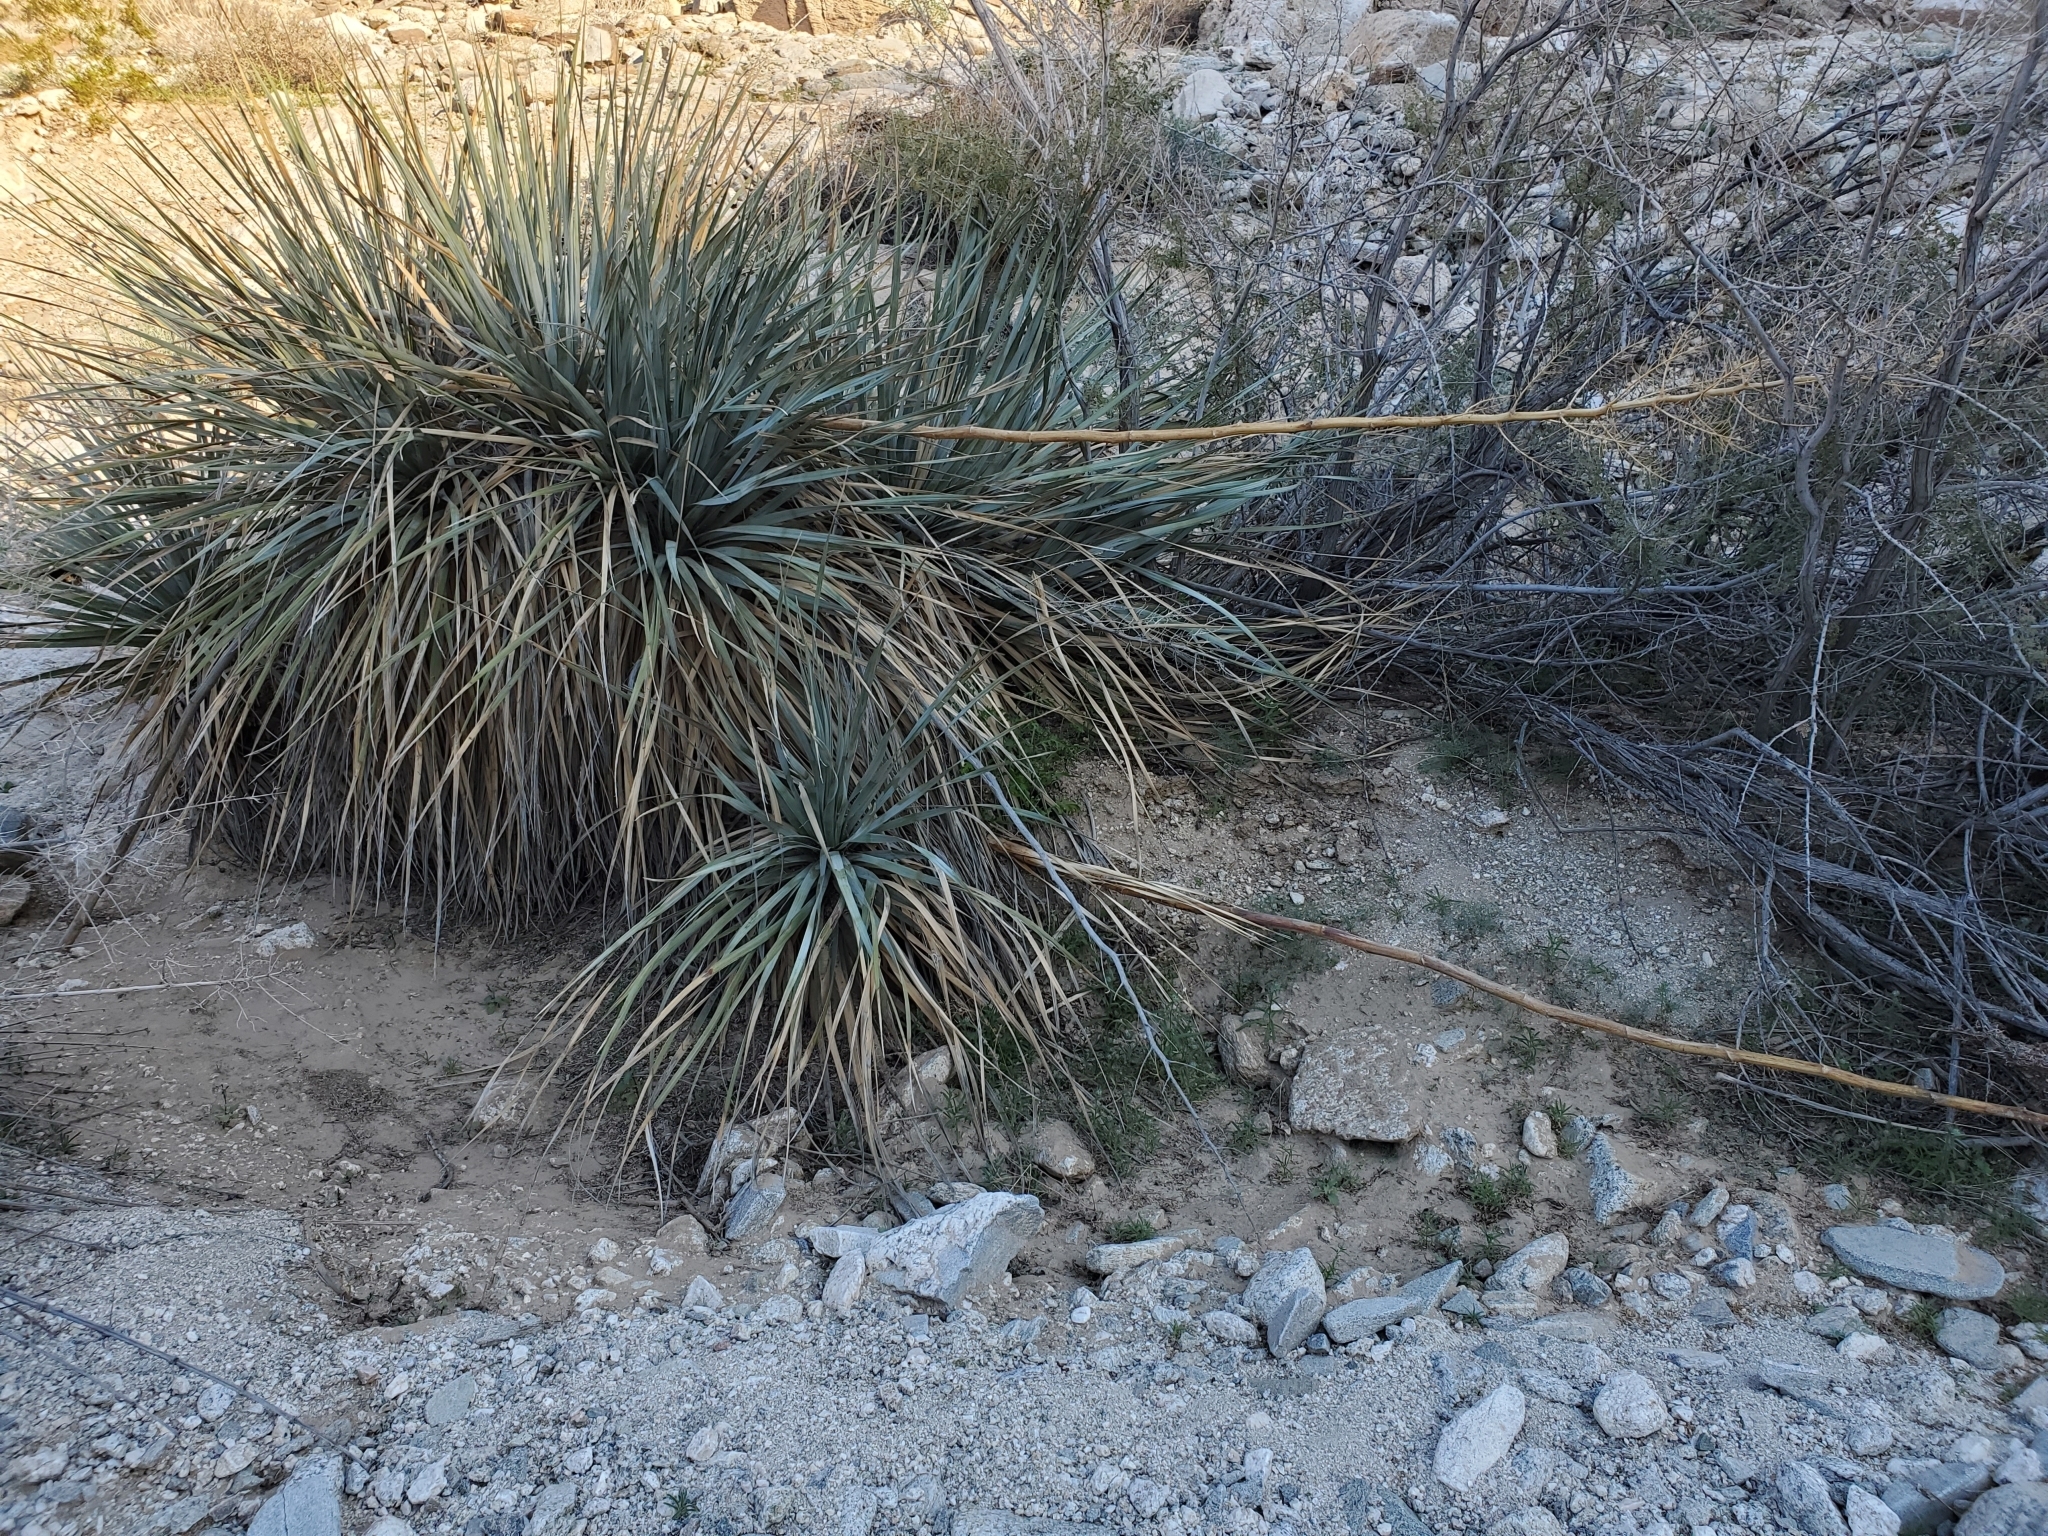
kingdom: Plantae
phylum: Tracheophyta
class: Liliopsida
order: Asparagales
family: Asparagaceae
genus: Nolina
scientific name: Nolina bigelovii
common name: Bigelow bear-grass
